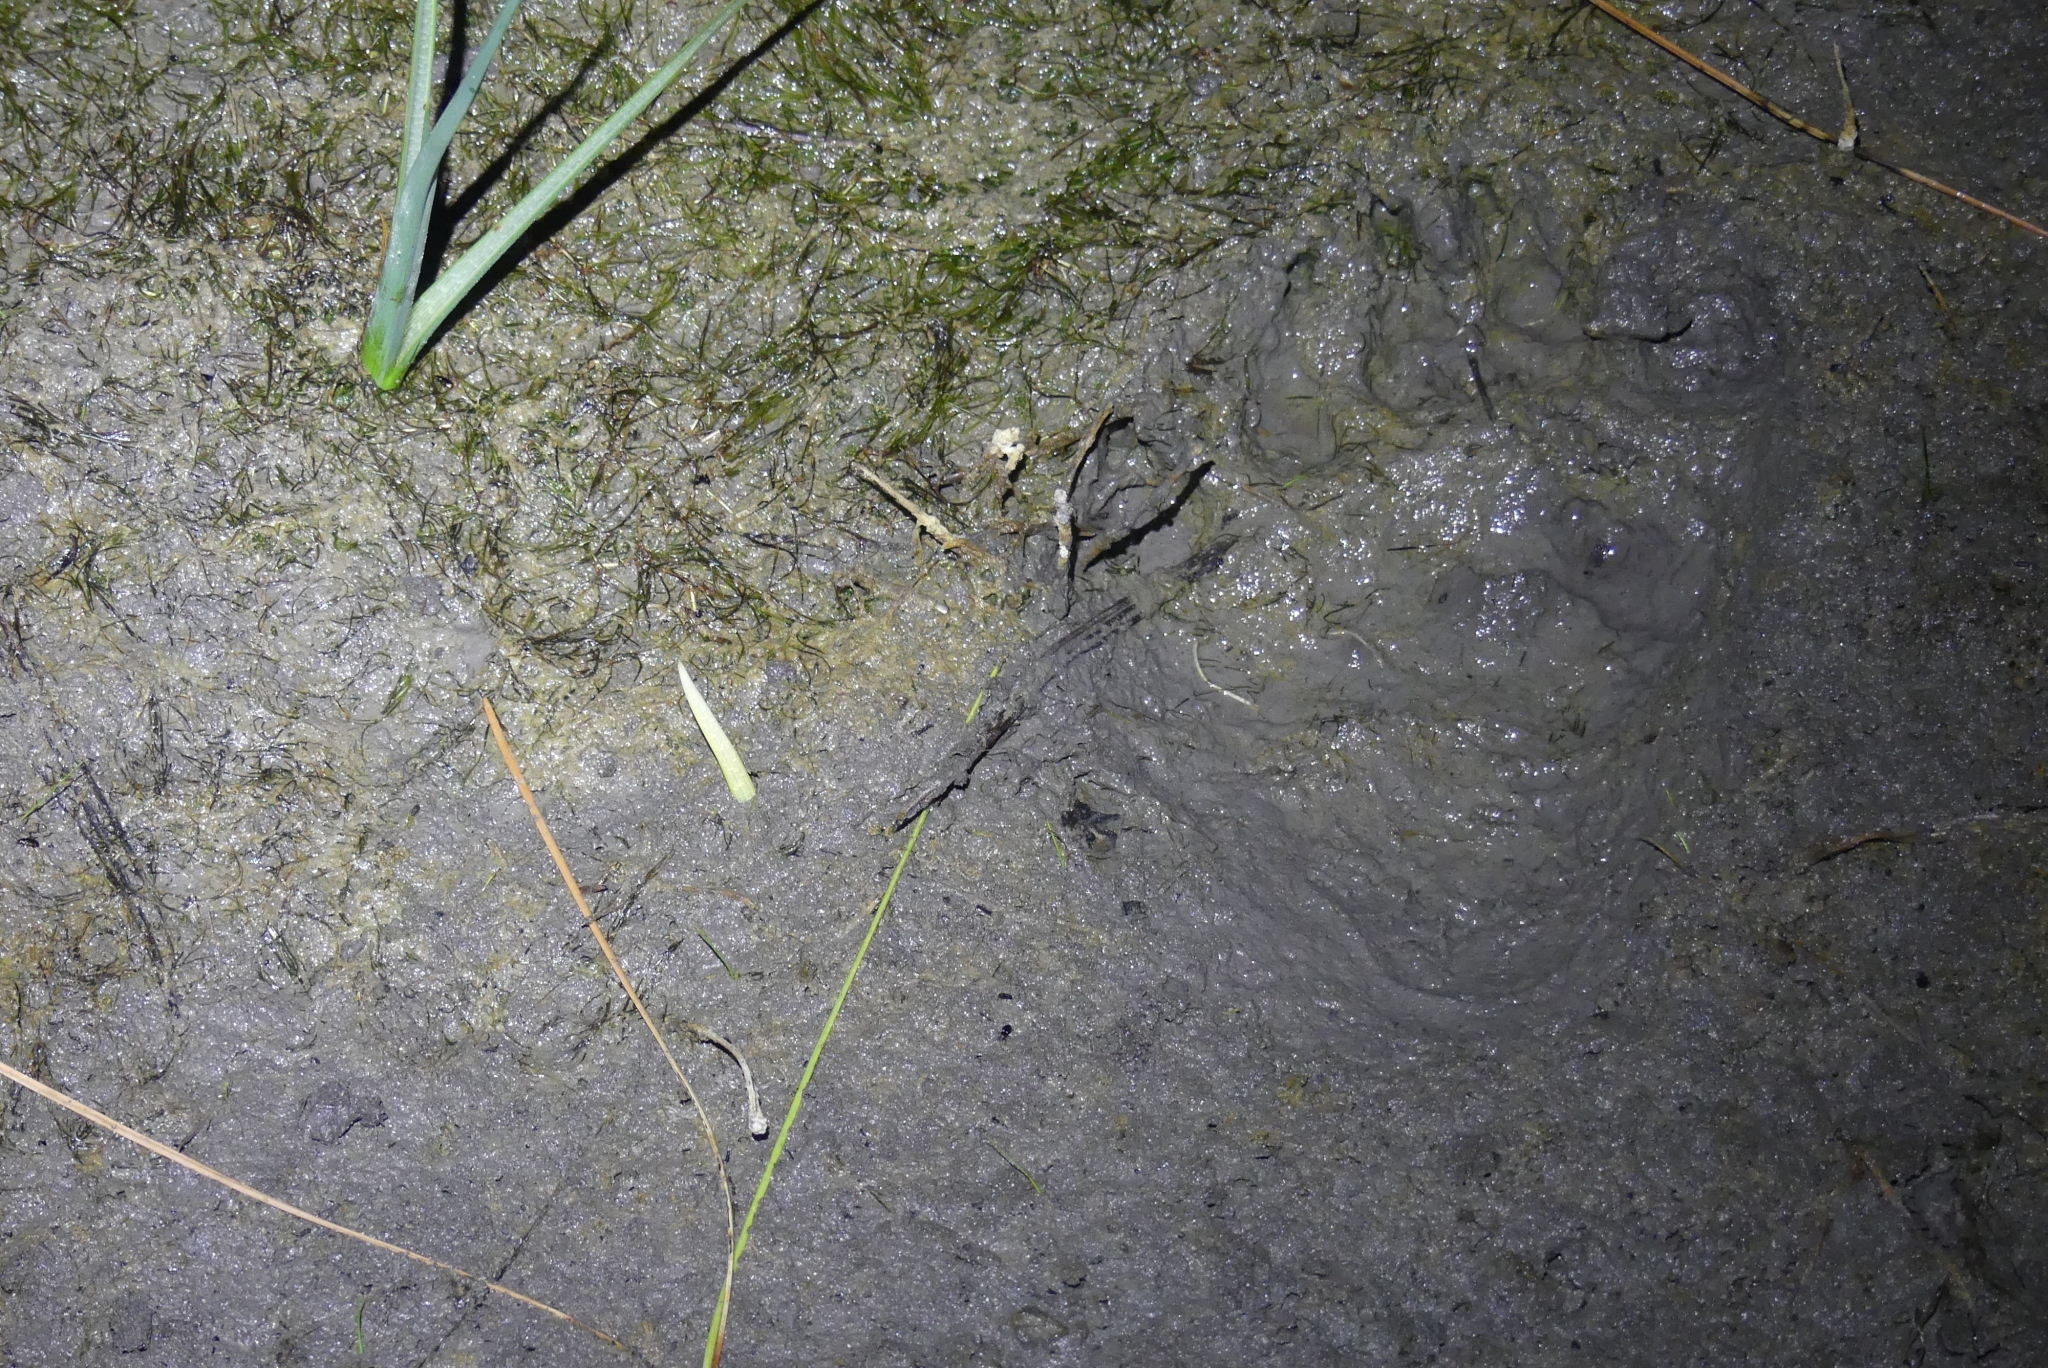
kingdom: Animalia
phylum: Chordata
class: Mammalia
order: Carnivora
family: Ursidae
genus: Ursus
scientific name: Ursus americanus
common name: American black bear
